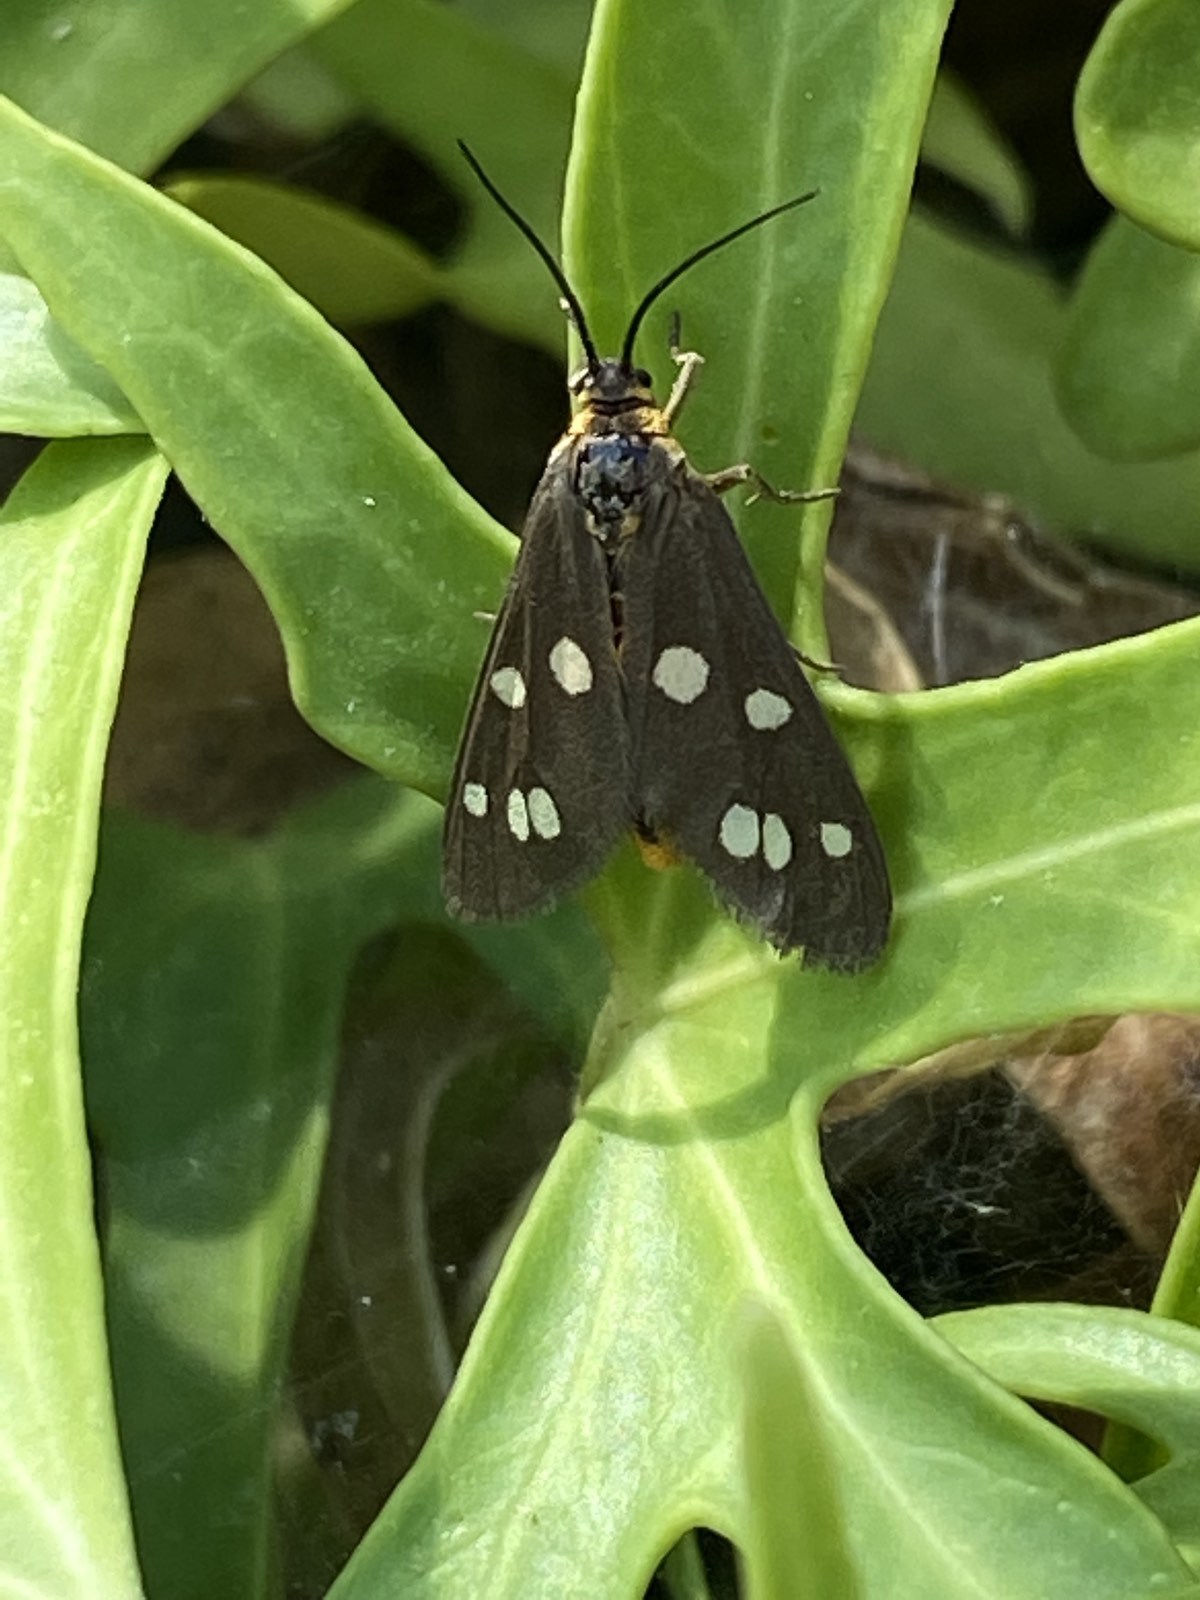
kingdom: Animalia
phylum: Arthropoda
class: Insecta
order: Lepidoptera
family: Erebidae
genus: Dysauxes
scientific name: Dysauxes punctata
